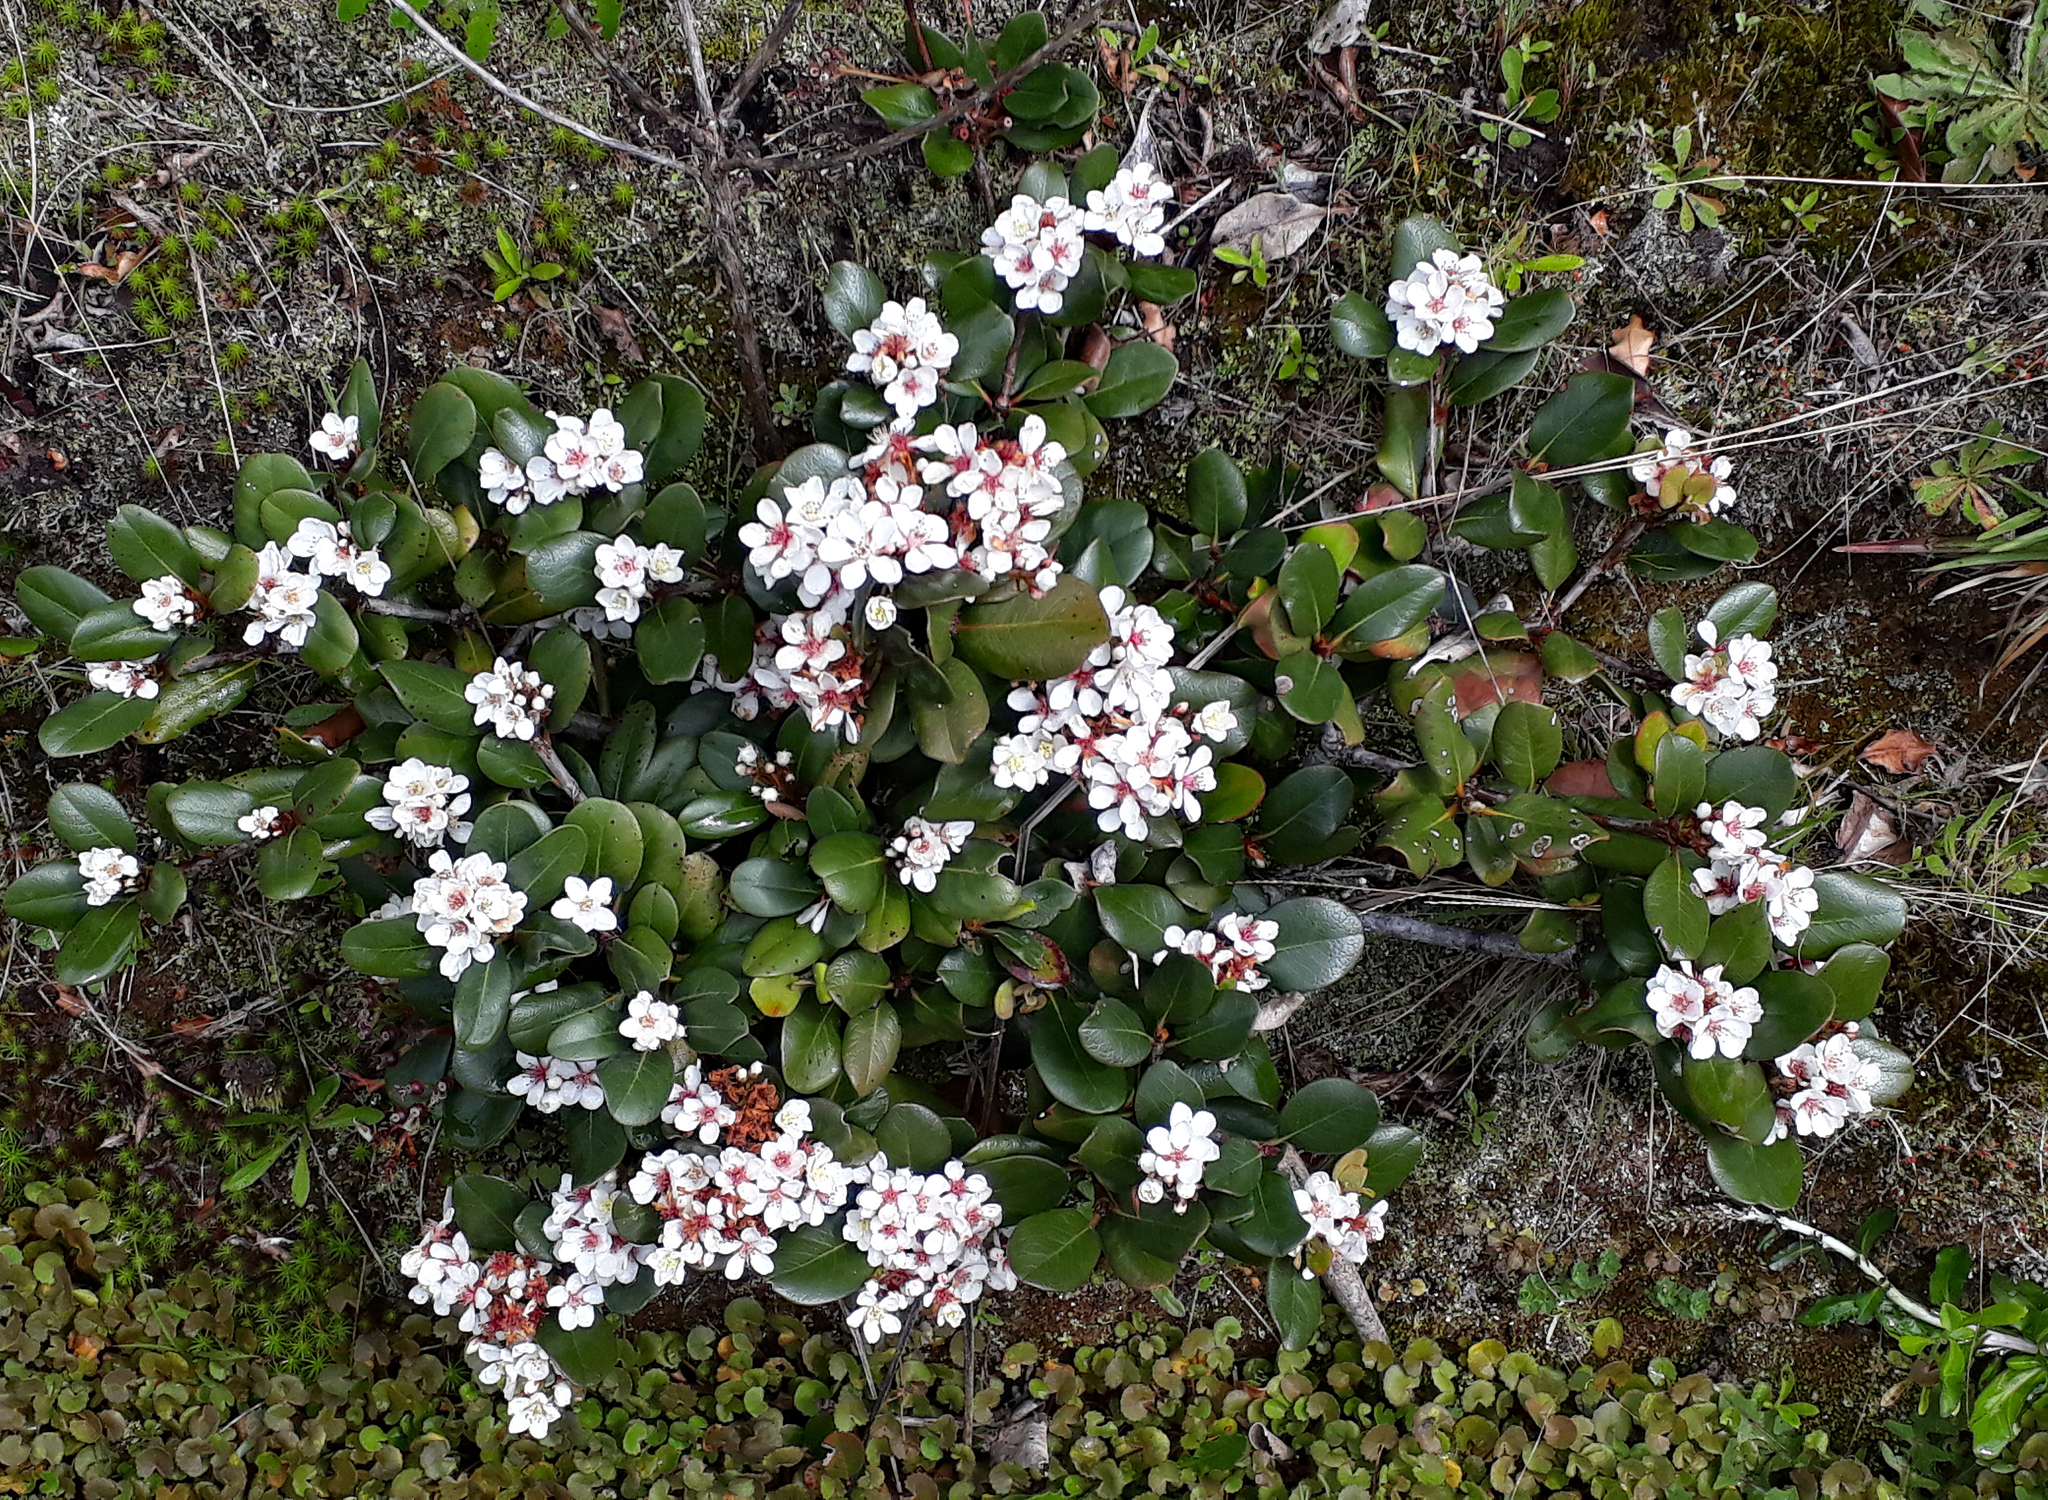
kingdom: Plantae
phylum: Tracheophyta
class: Magnoliopsida
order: Rosales
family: Rosaceae
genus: Rhaphiolepis
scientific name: Rhaphiolepis indica
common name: India-hawthorn
